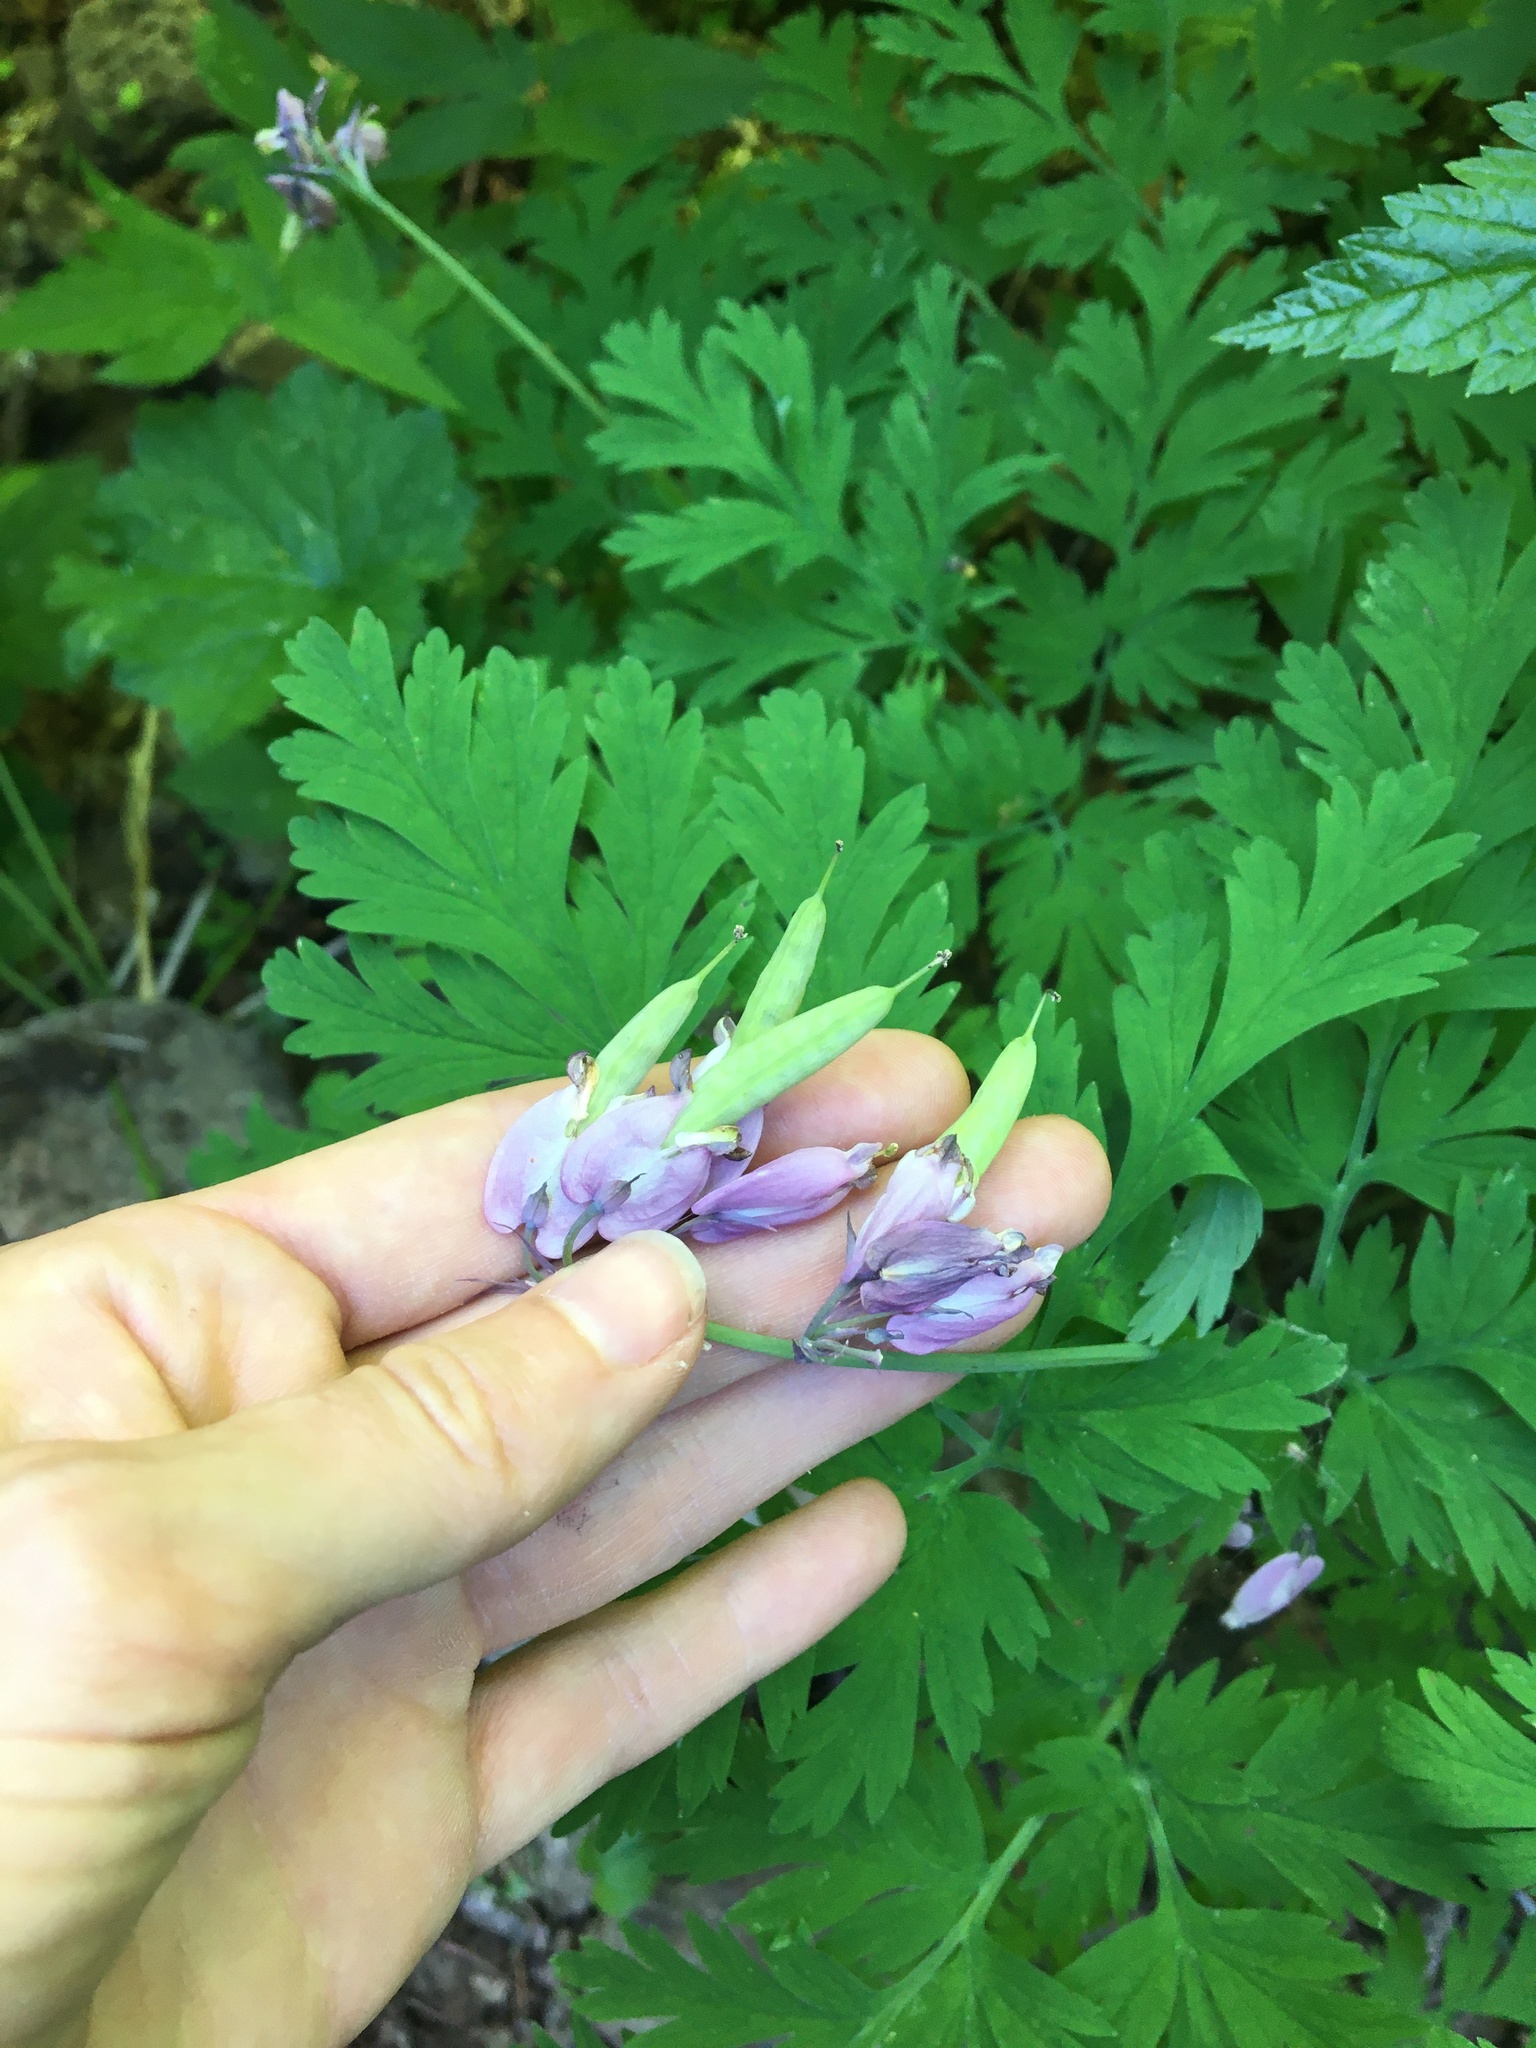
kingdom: Plantae
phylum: Tracheophyta
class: Magnoliopsida
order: Ranunculales
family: Papaveraceae
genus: Dicentra
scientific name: Dicentra formosa
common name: Bleeding-heart
